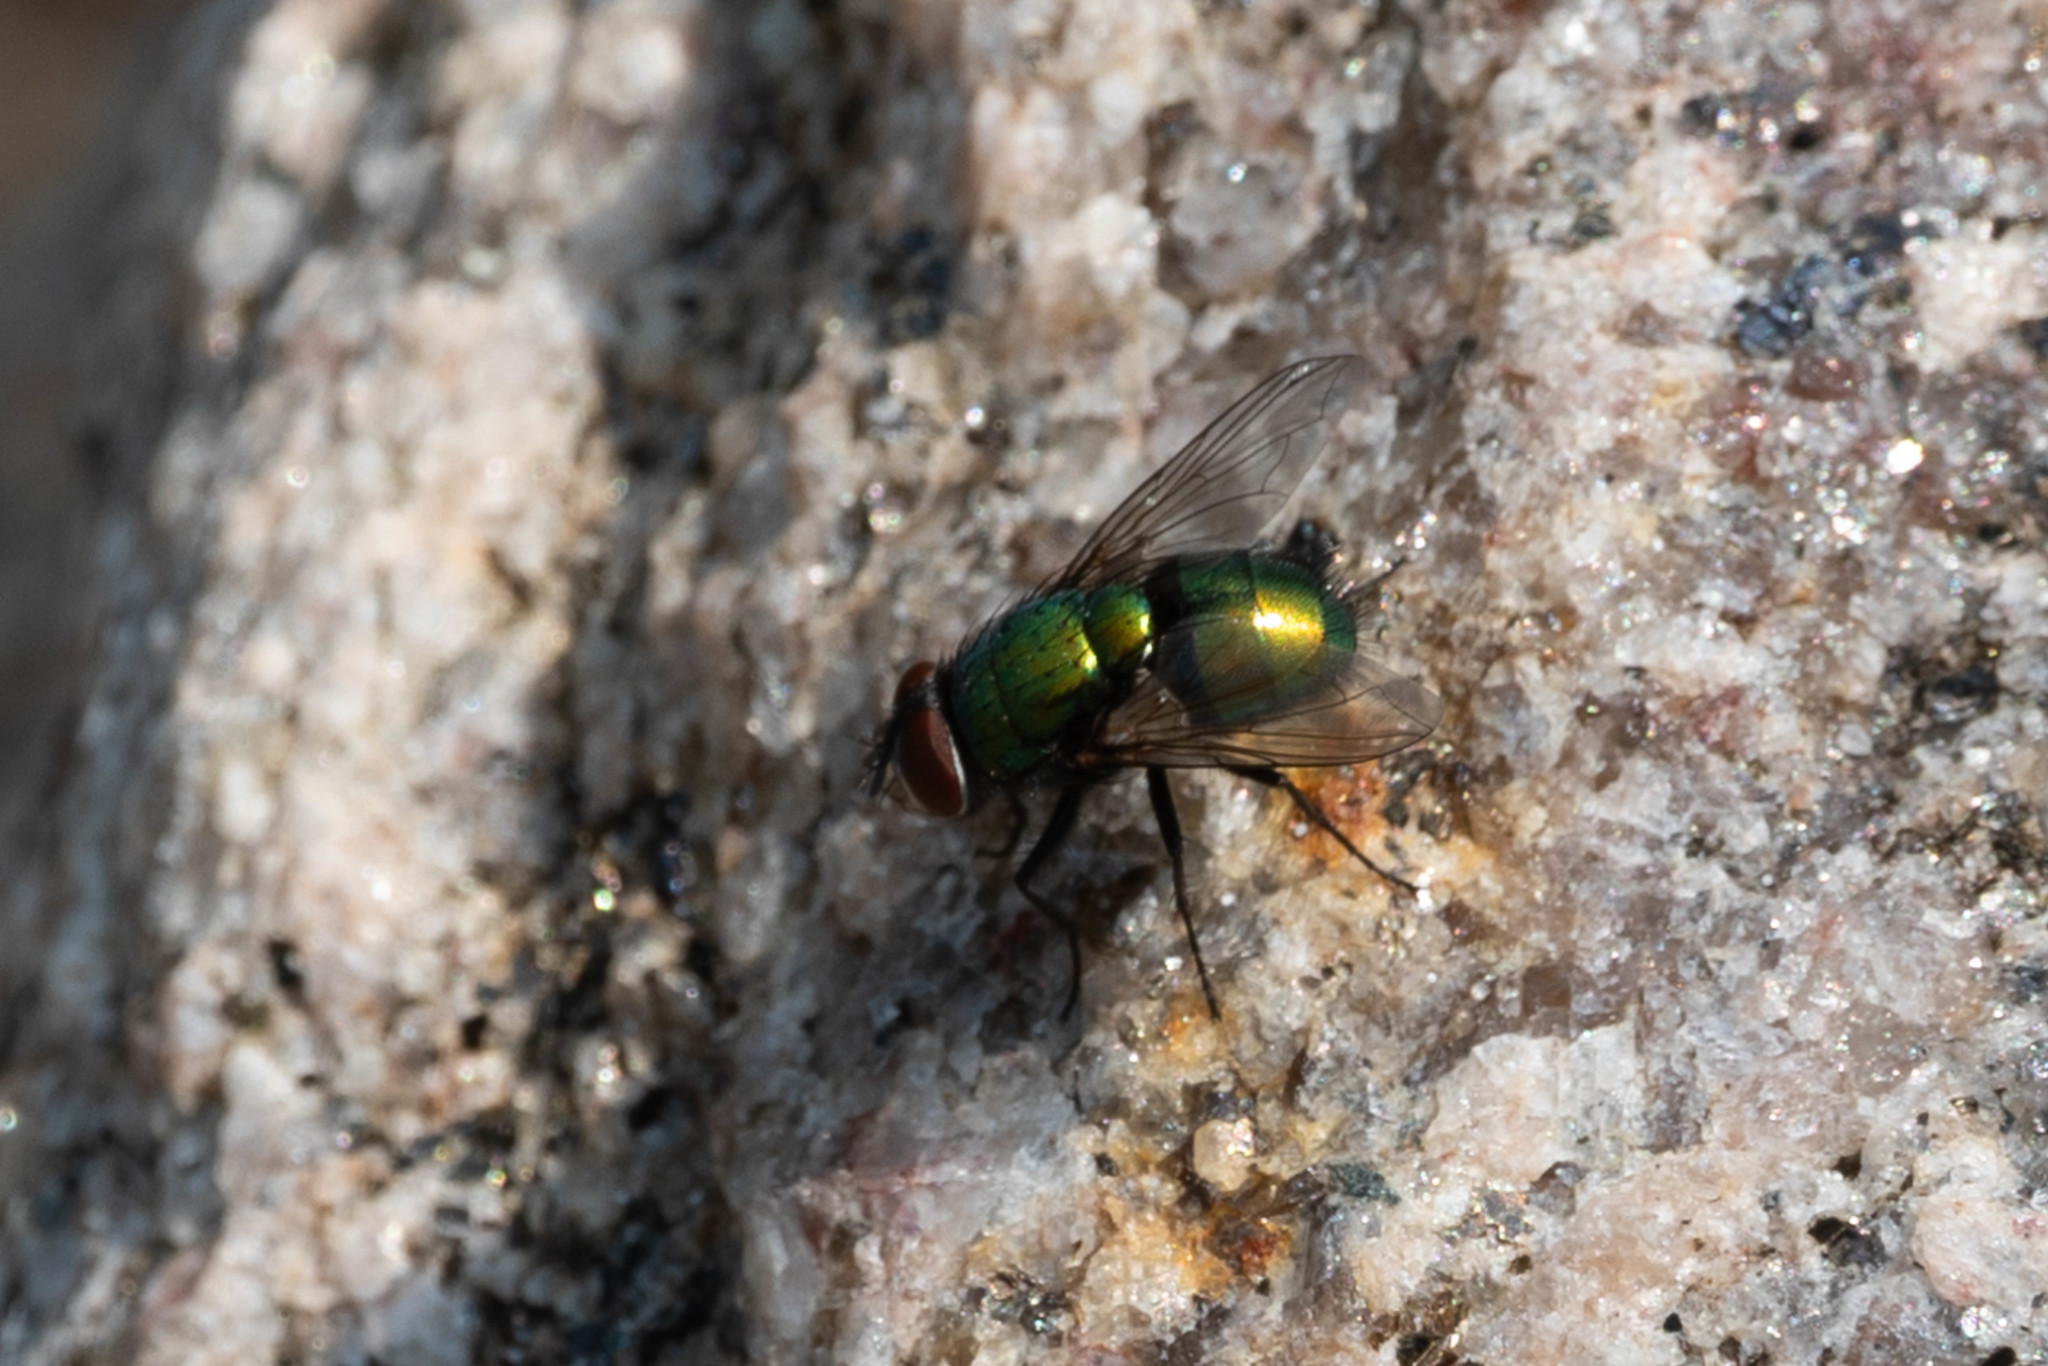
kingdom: Animalia
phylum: Arthropoda
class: Insecta
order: Diptera
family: Calliphoridae
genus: Lucilia
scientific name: Lucilia sericata
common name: Blow fly
